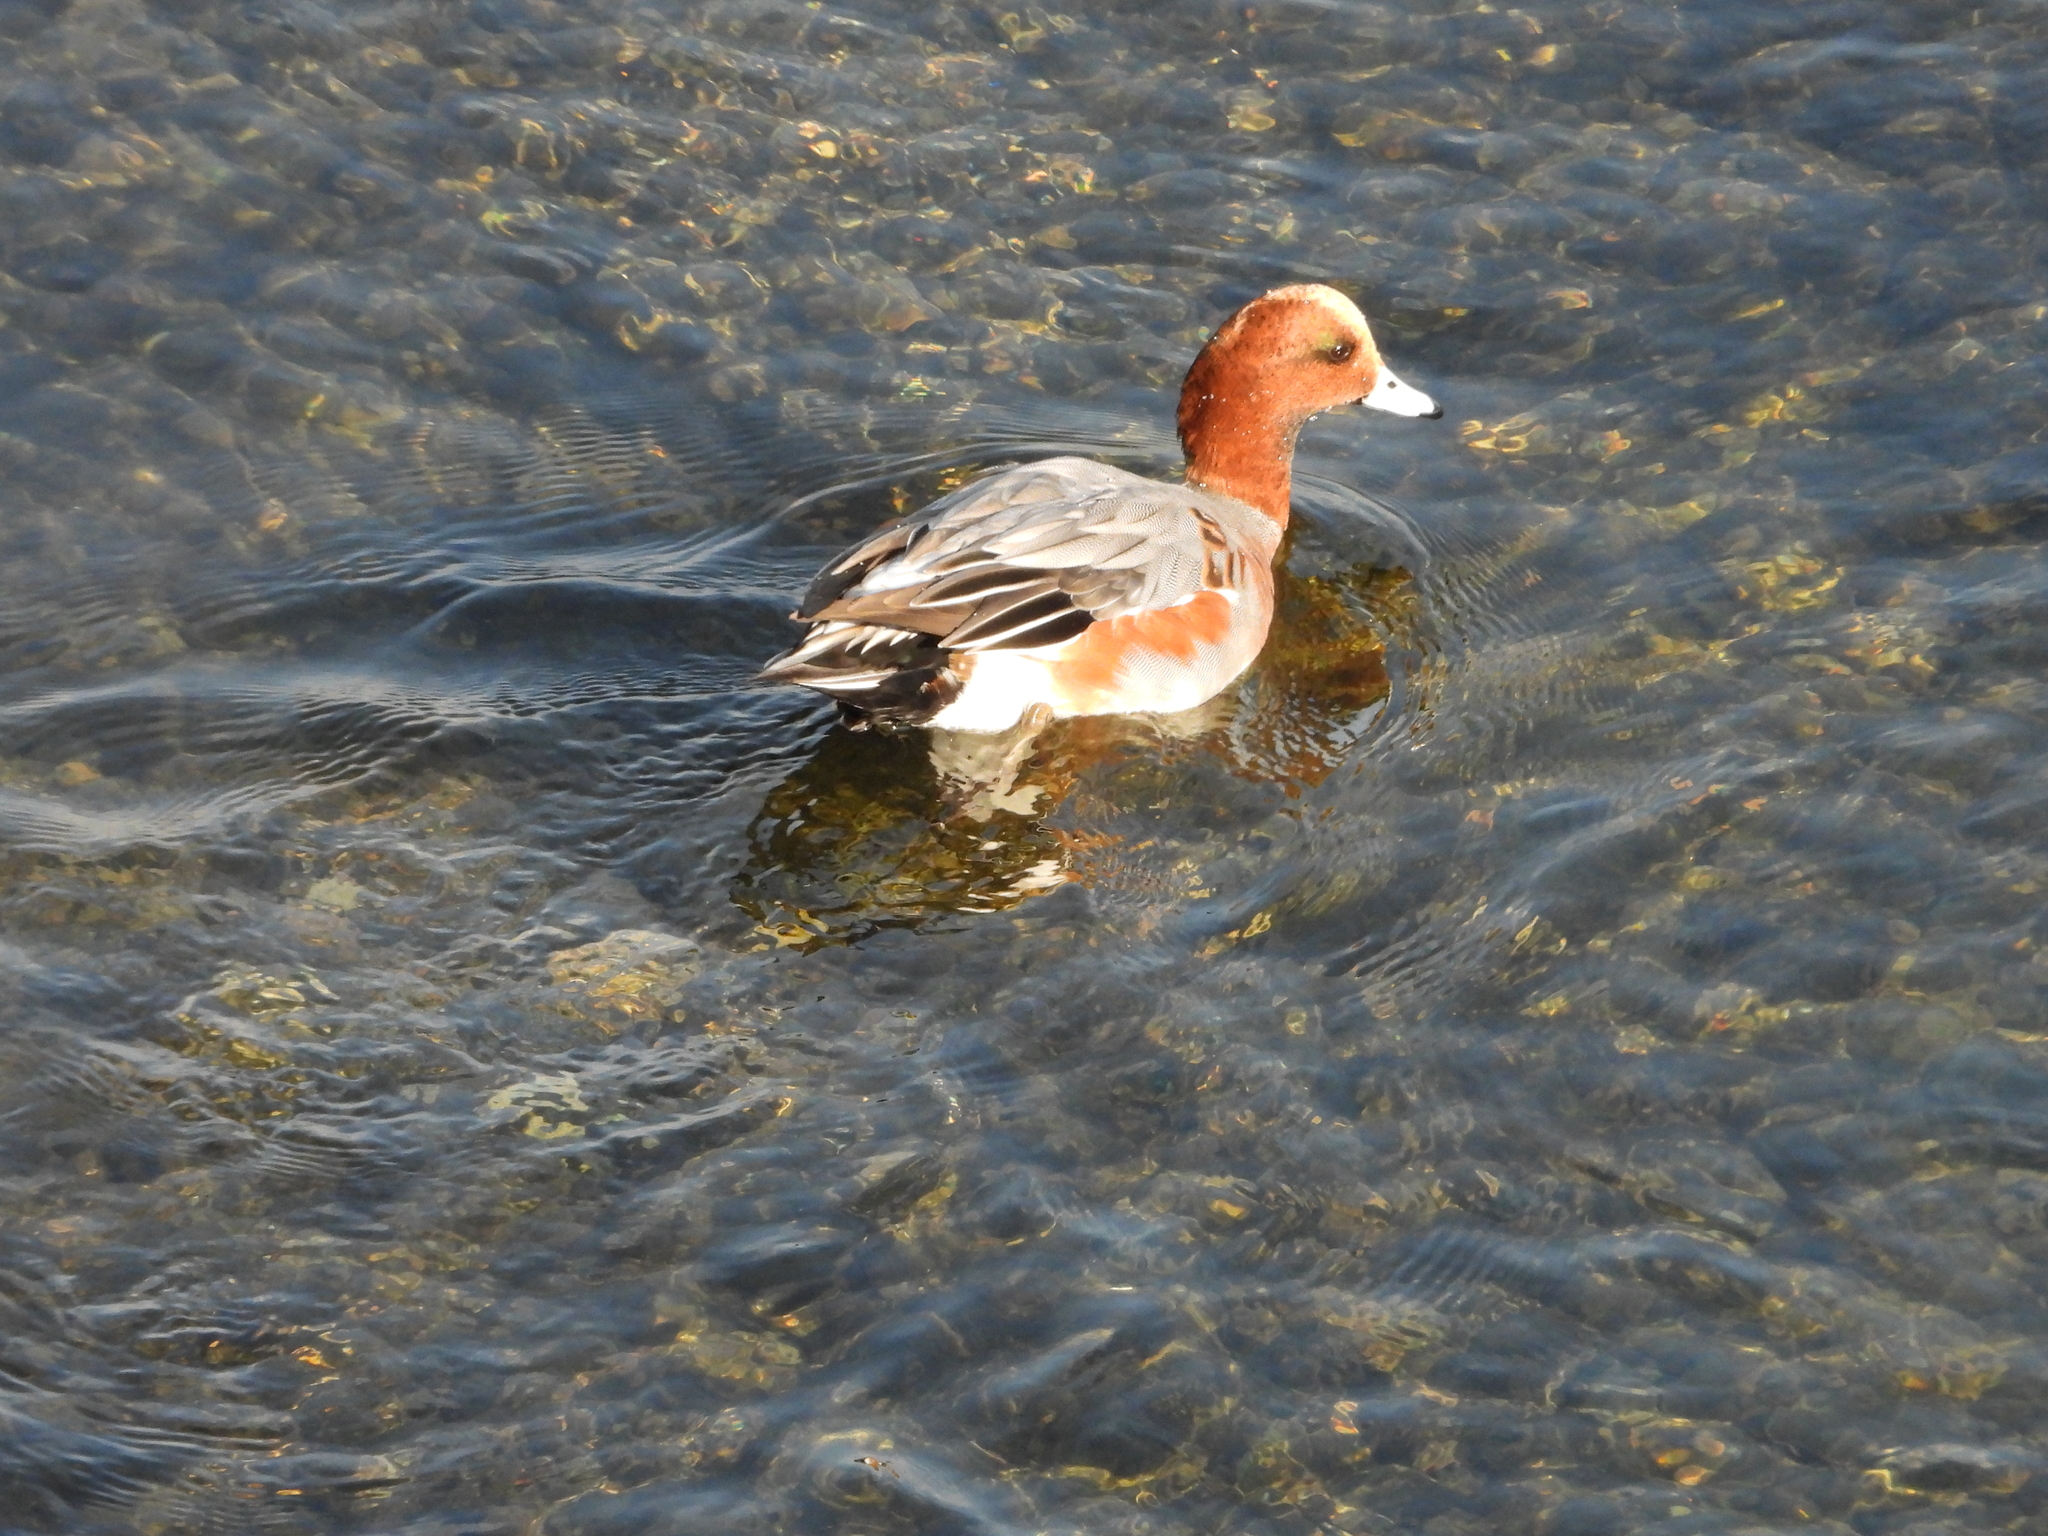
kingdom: Animalia
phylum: Chordata
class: Aves
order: Anseriformes
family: Anatidae
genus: Mareca
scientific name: Mareca penelope
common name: Eurasian wigeon
